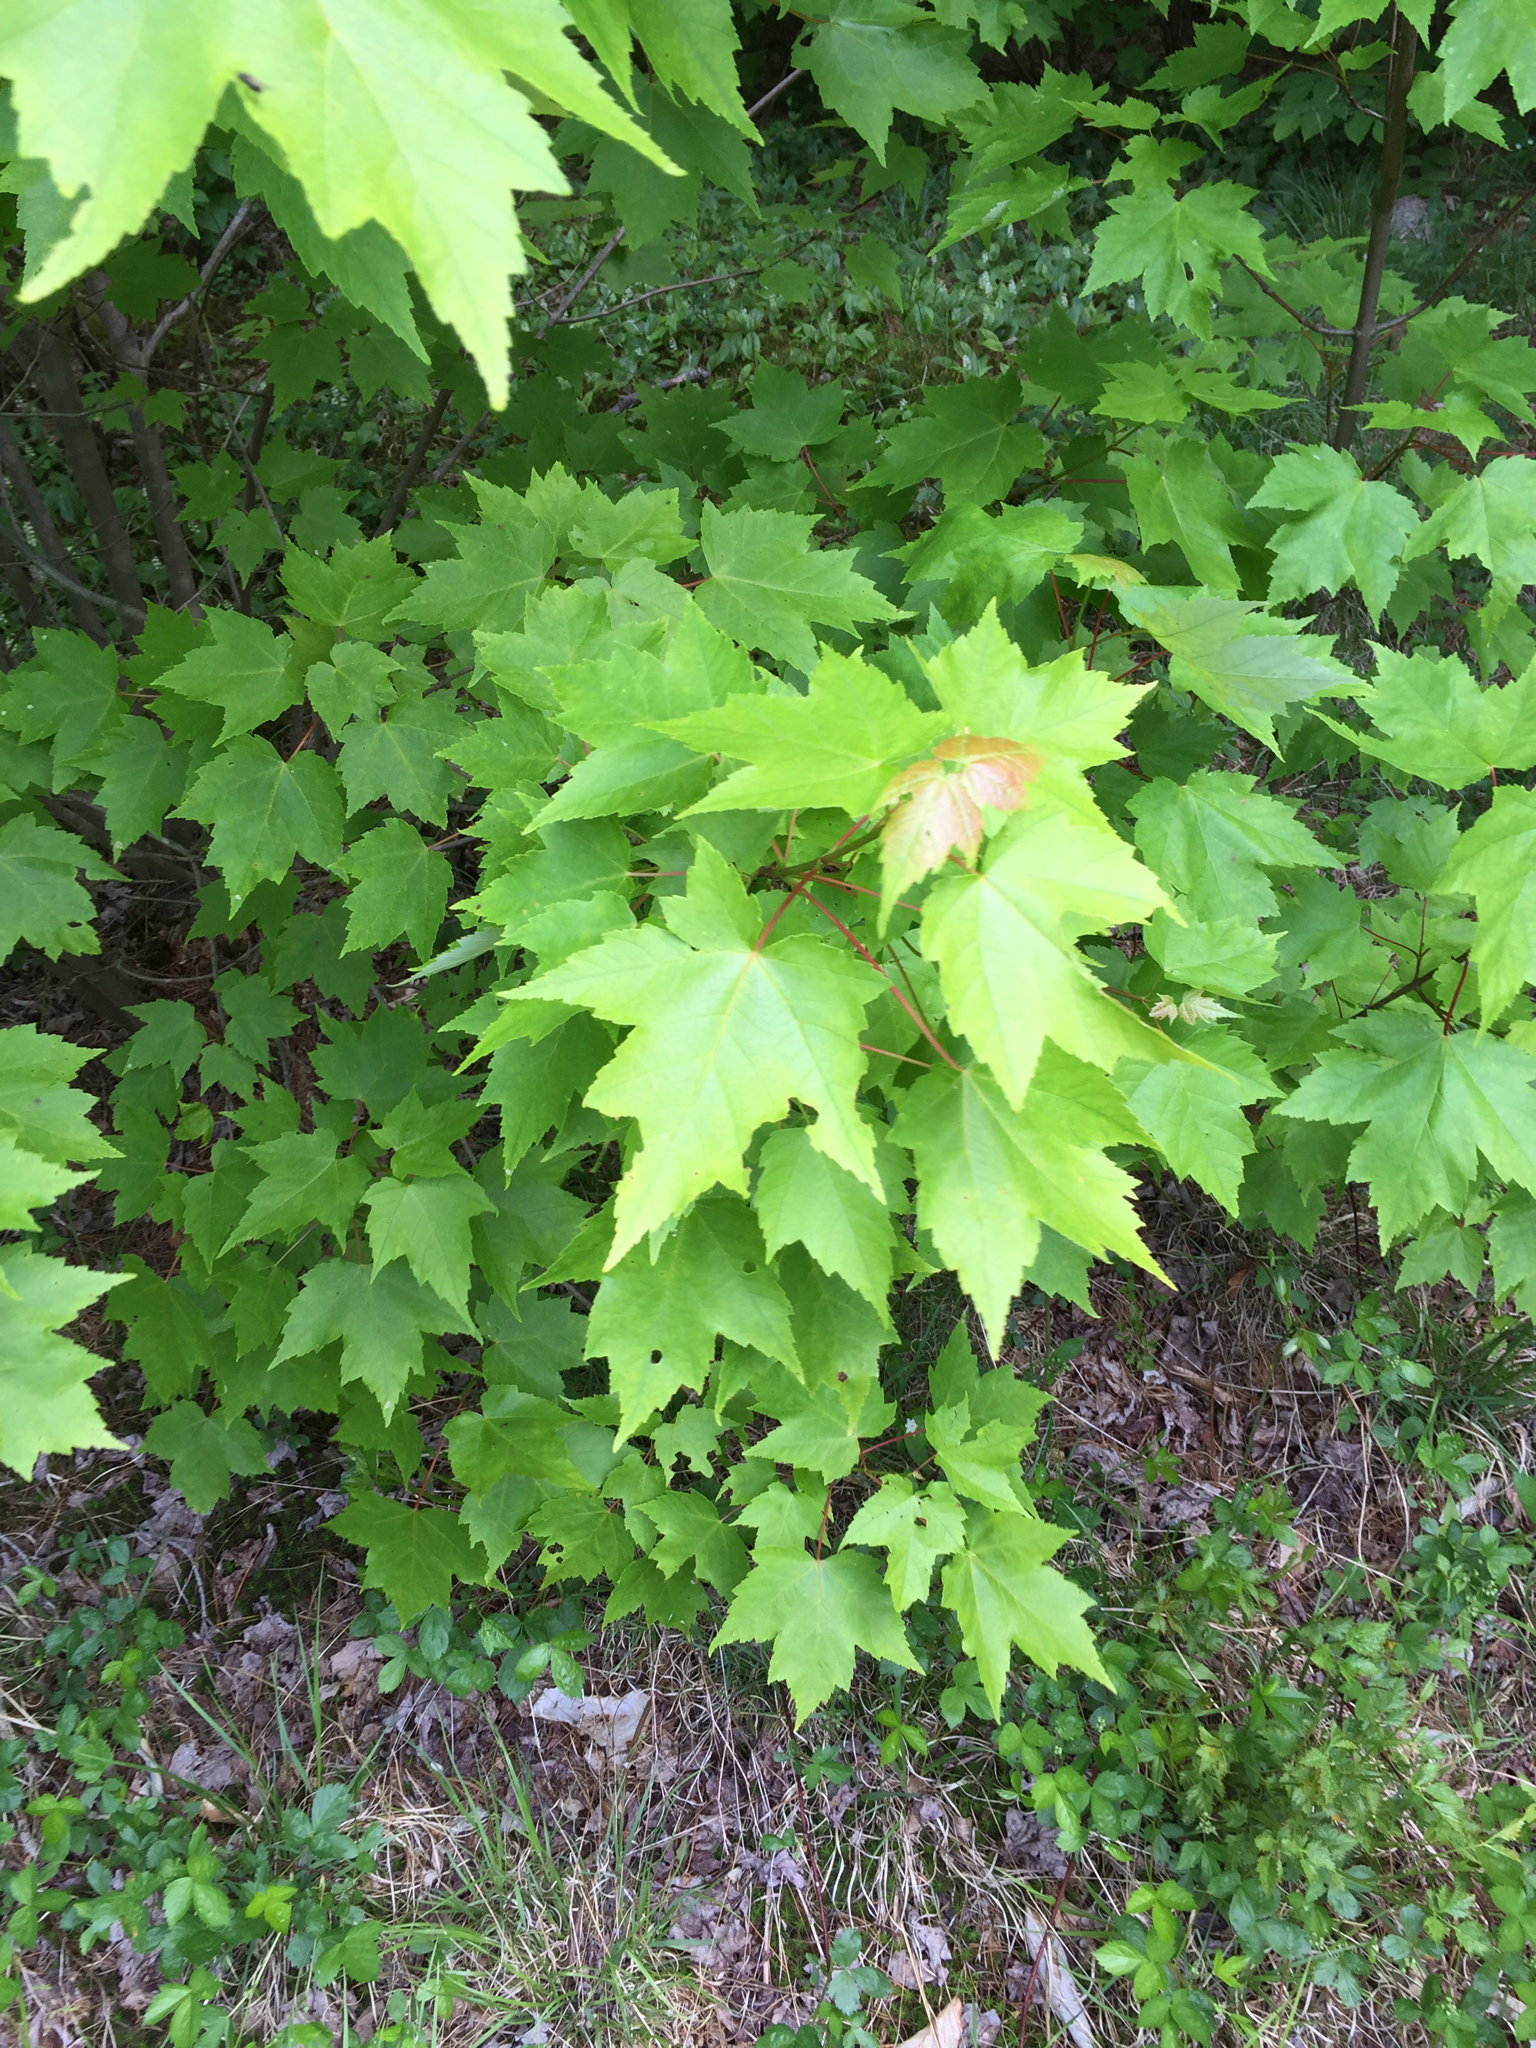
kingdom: Plantae
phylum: Tracheophyta
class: Magnoliopsida
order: Sapindales
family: Sapindaceae
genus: Acer
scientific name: Acer rubrum
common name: Red maple
